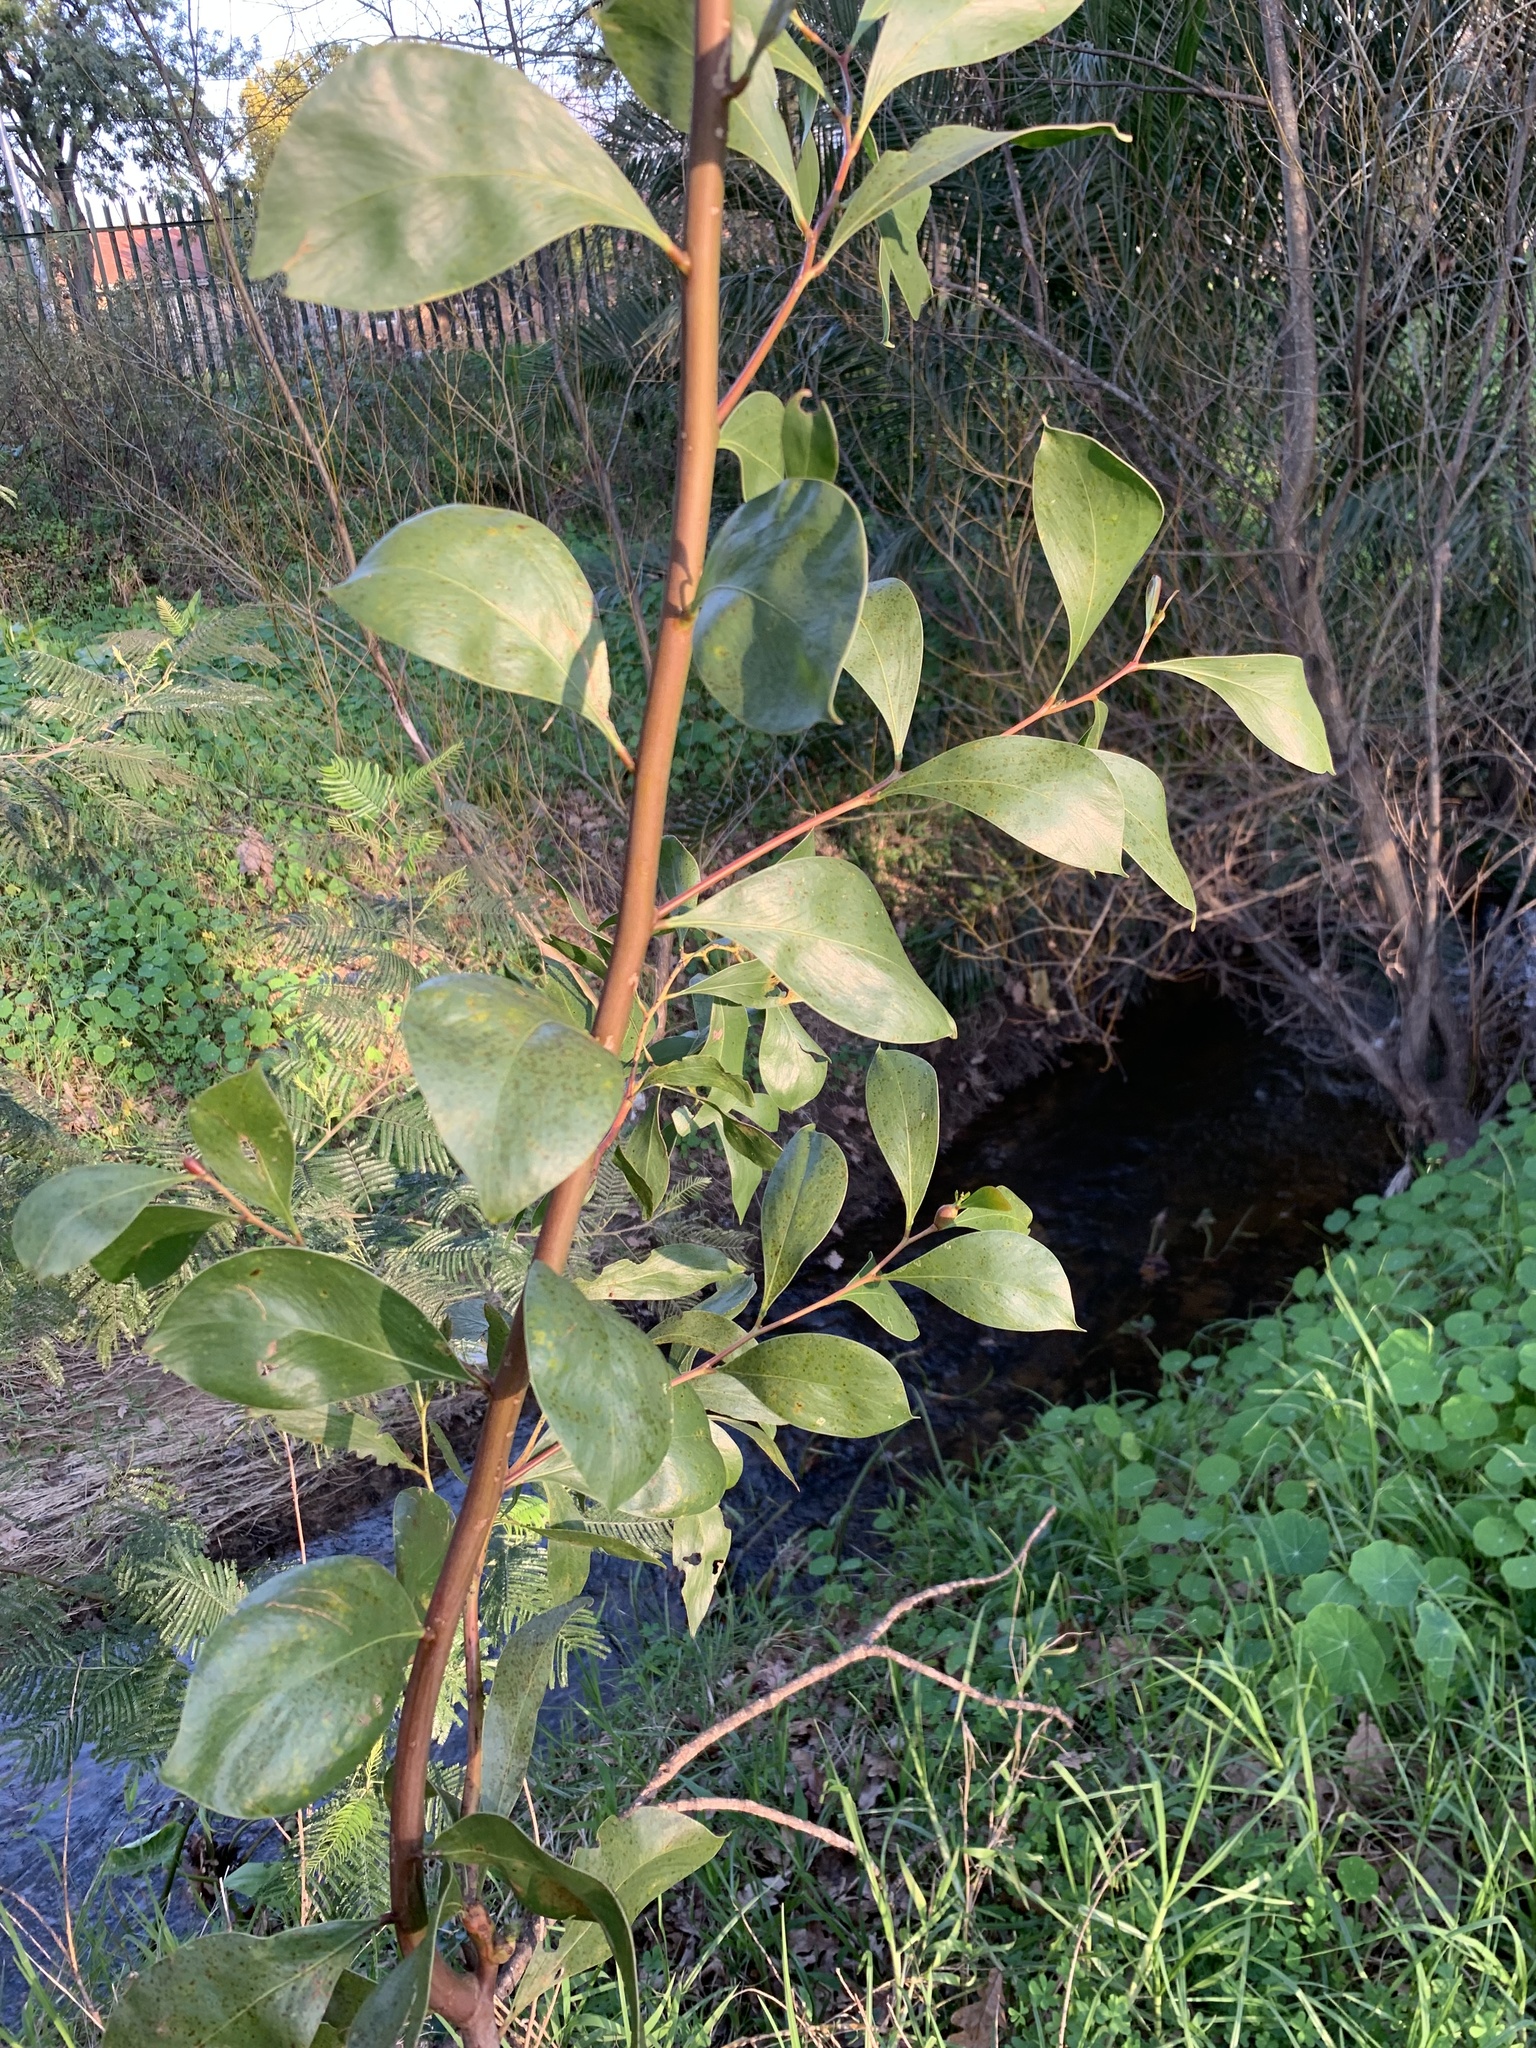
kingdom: Plantae
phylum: Tracheophyta
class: Magnoliopsida
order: Fabales
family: Fabaceae
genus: Acacia
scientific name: Acacia pycnantha
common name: Golden wattle
